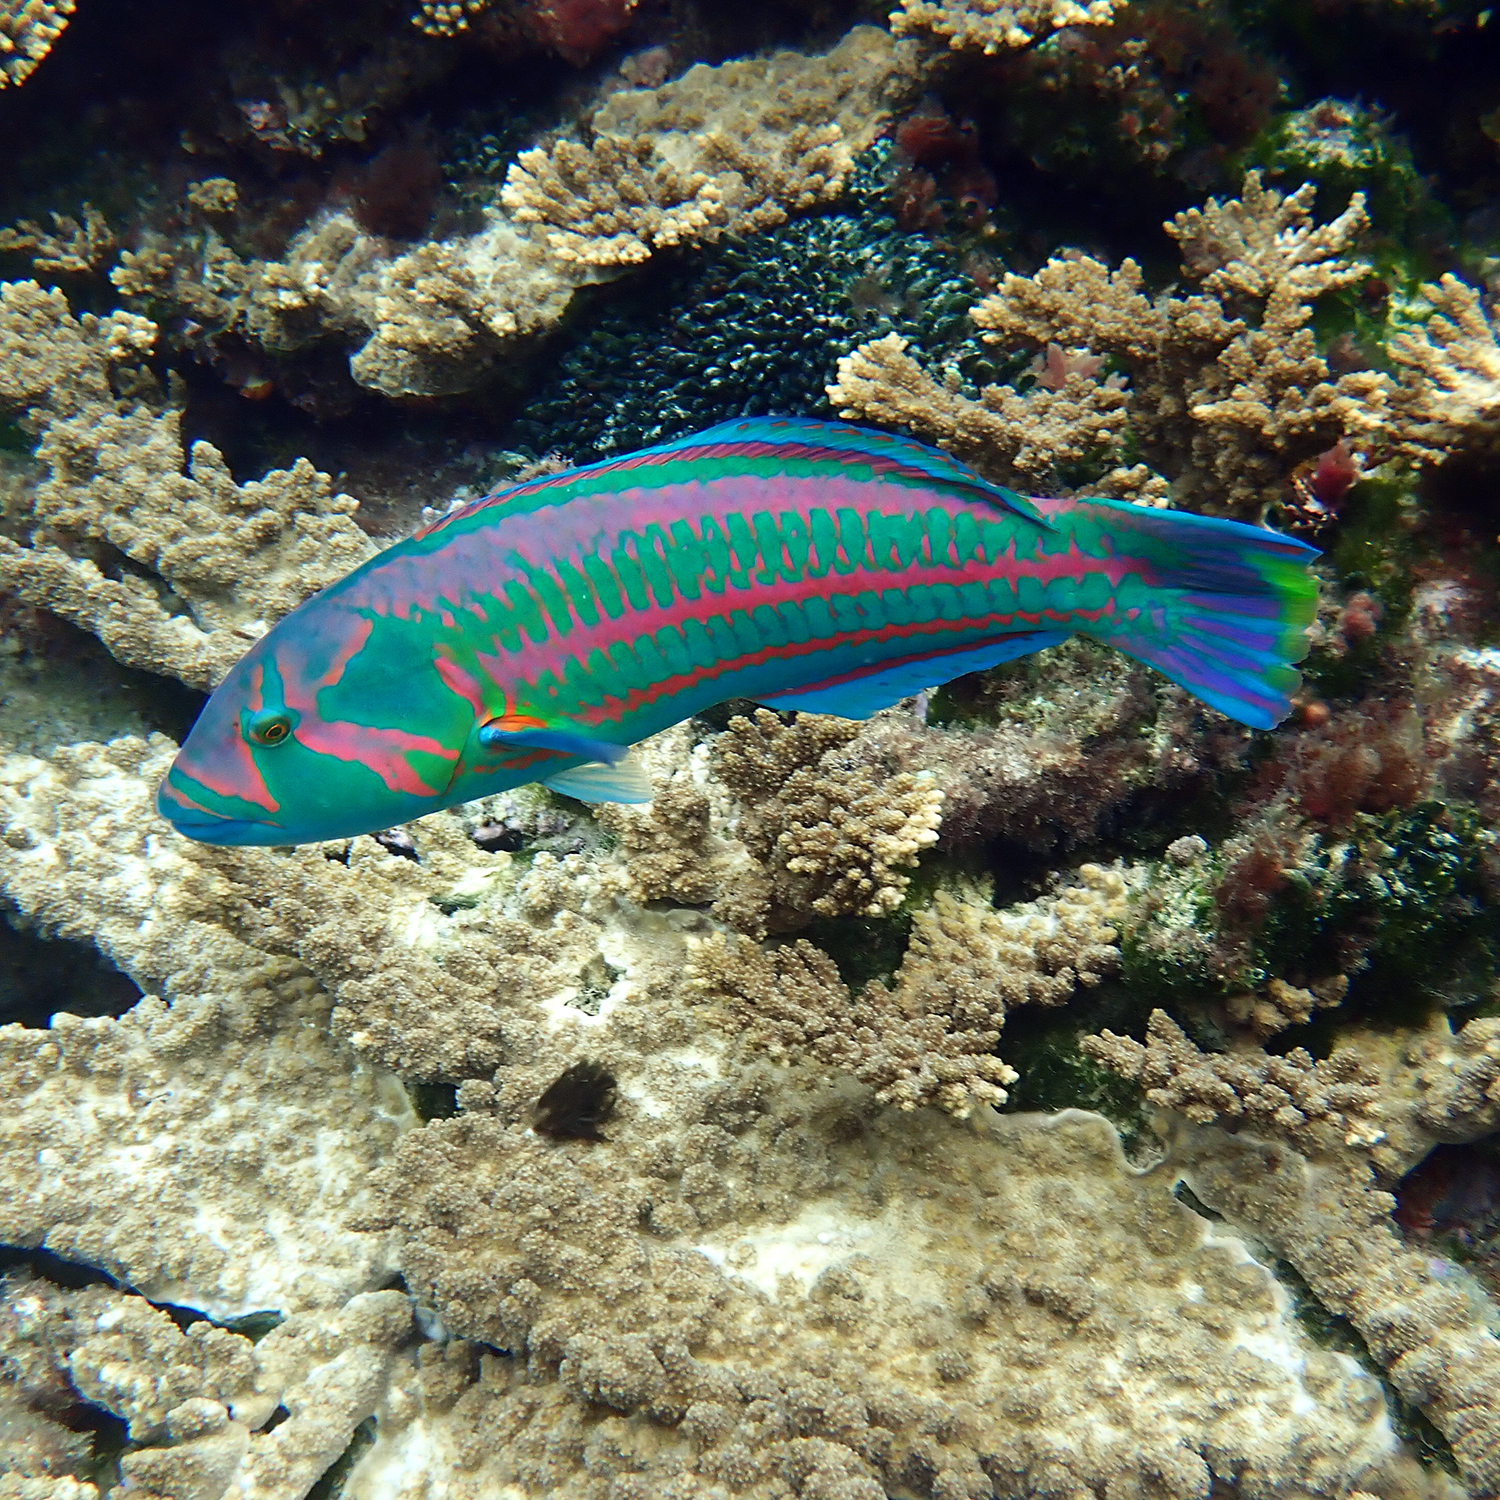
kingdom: Animalia
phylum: Chordata
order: Perciformes
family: Labridae
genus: Thalassoma
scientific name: Thalassoma purpureum
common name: Parrotfish
